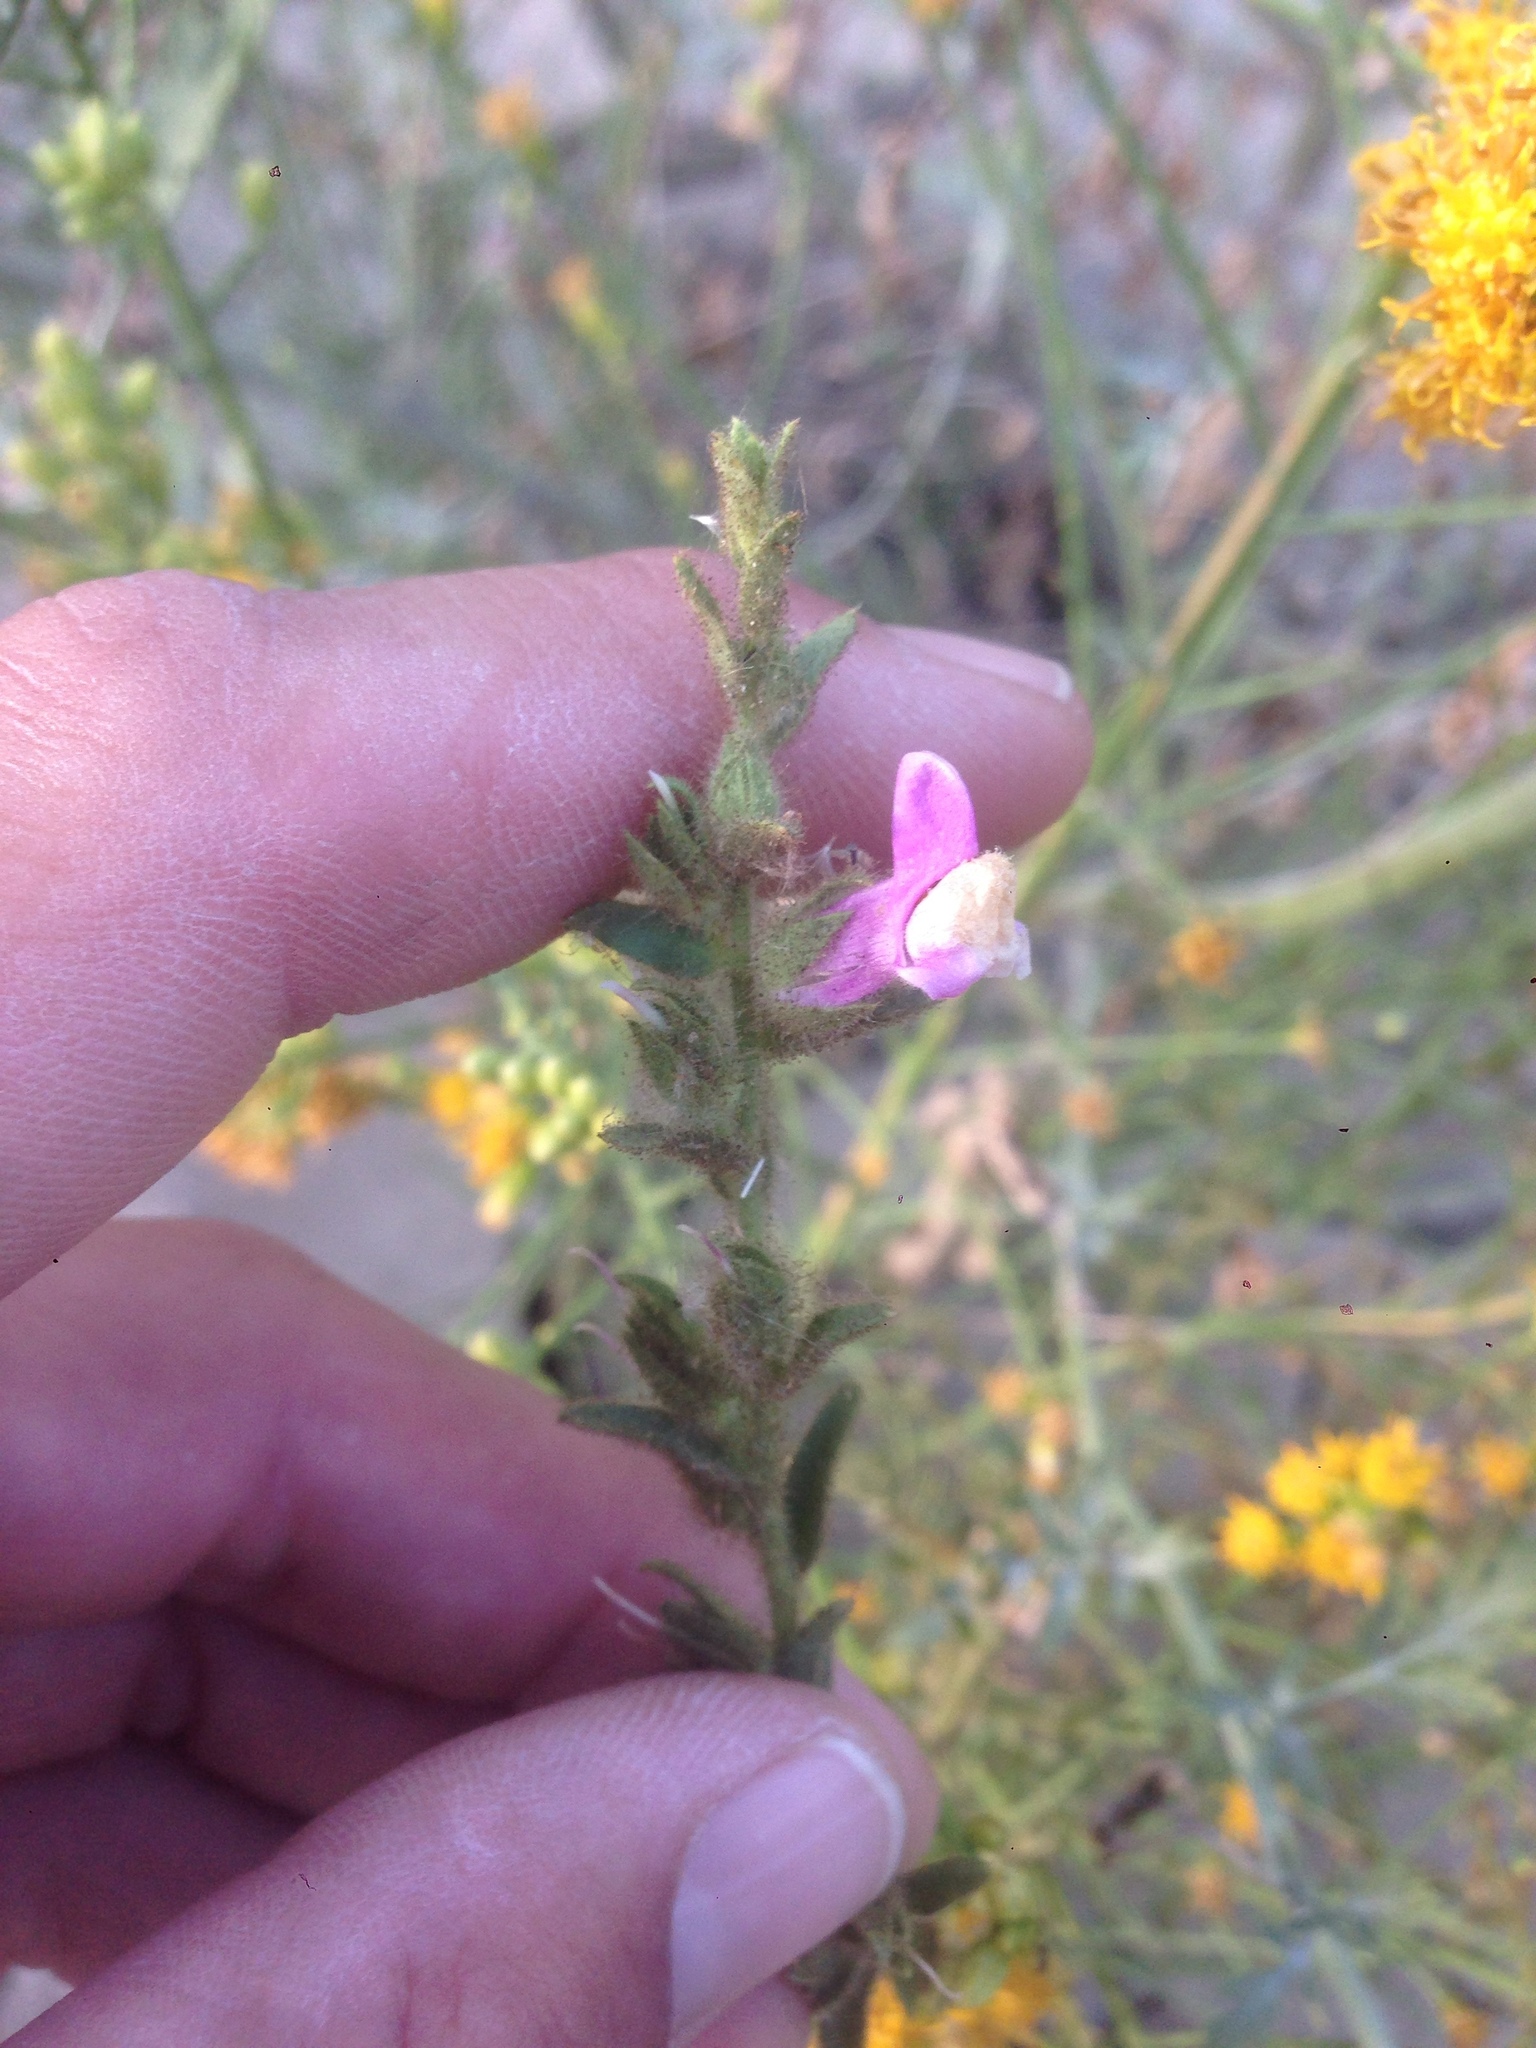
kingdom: Plantae
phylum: Tracheophyta
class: Magnoliopsida
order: Lamiales
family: Plantaginaceae
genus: Sairocarpus
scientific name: Sairocarpus multiflorus
